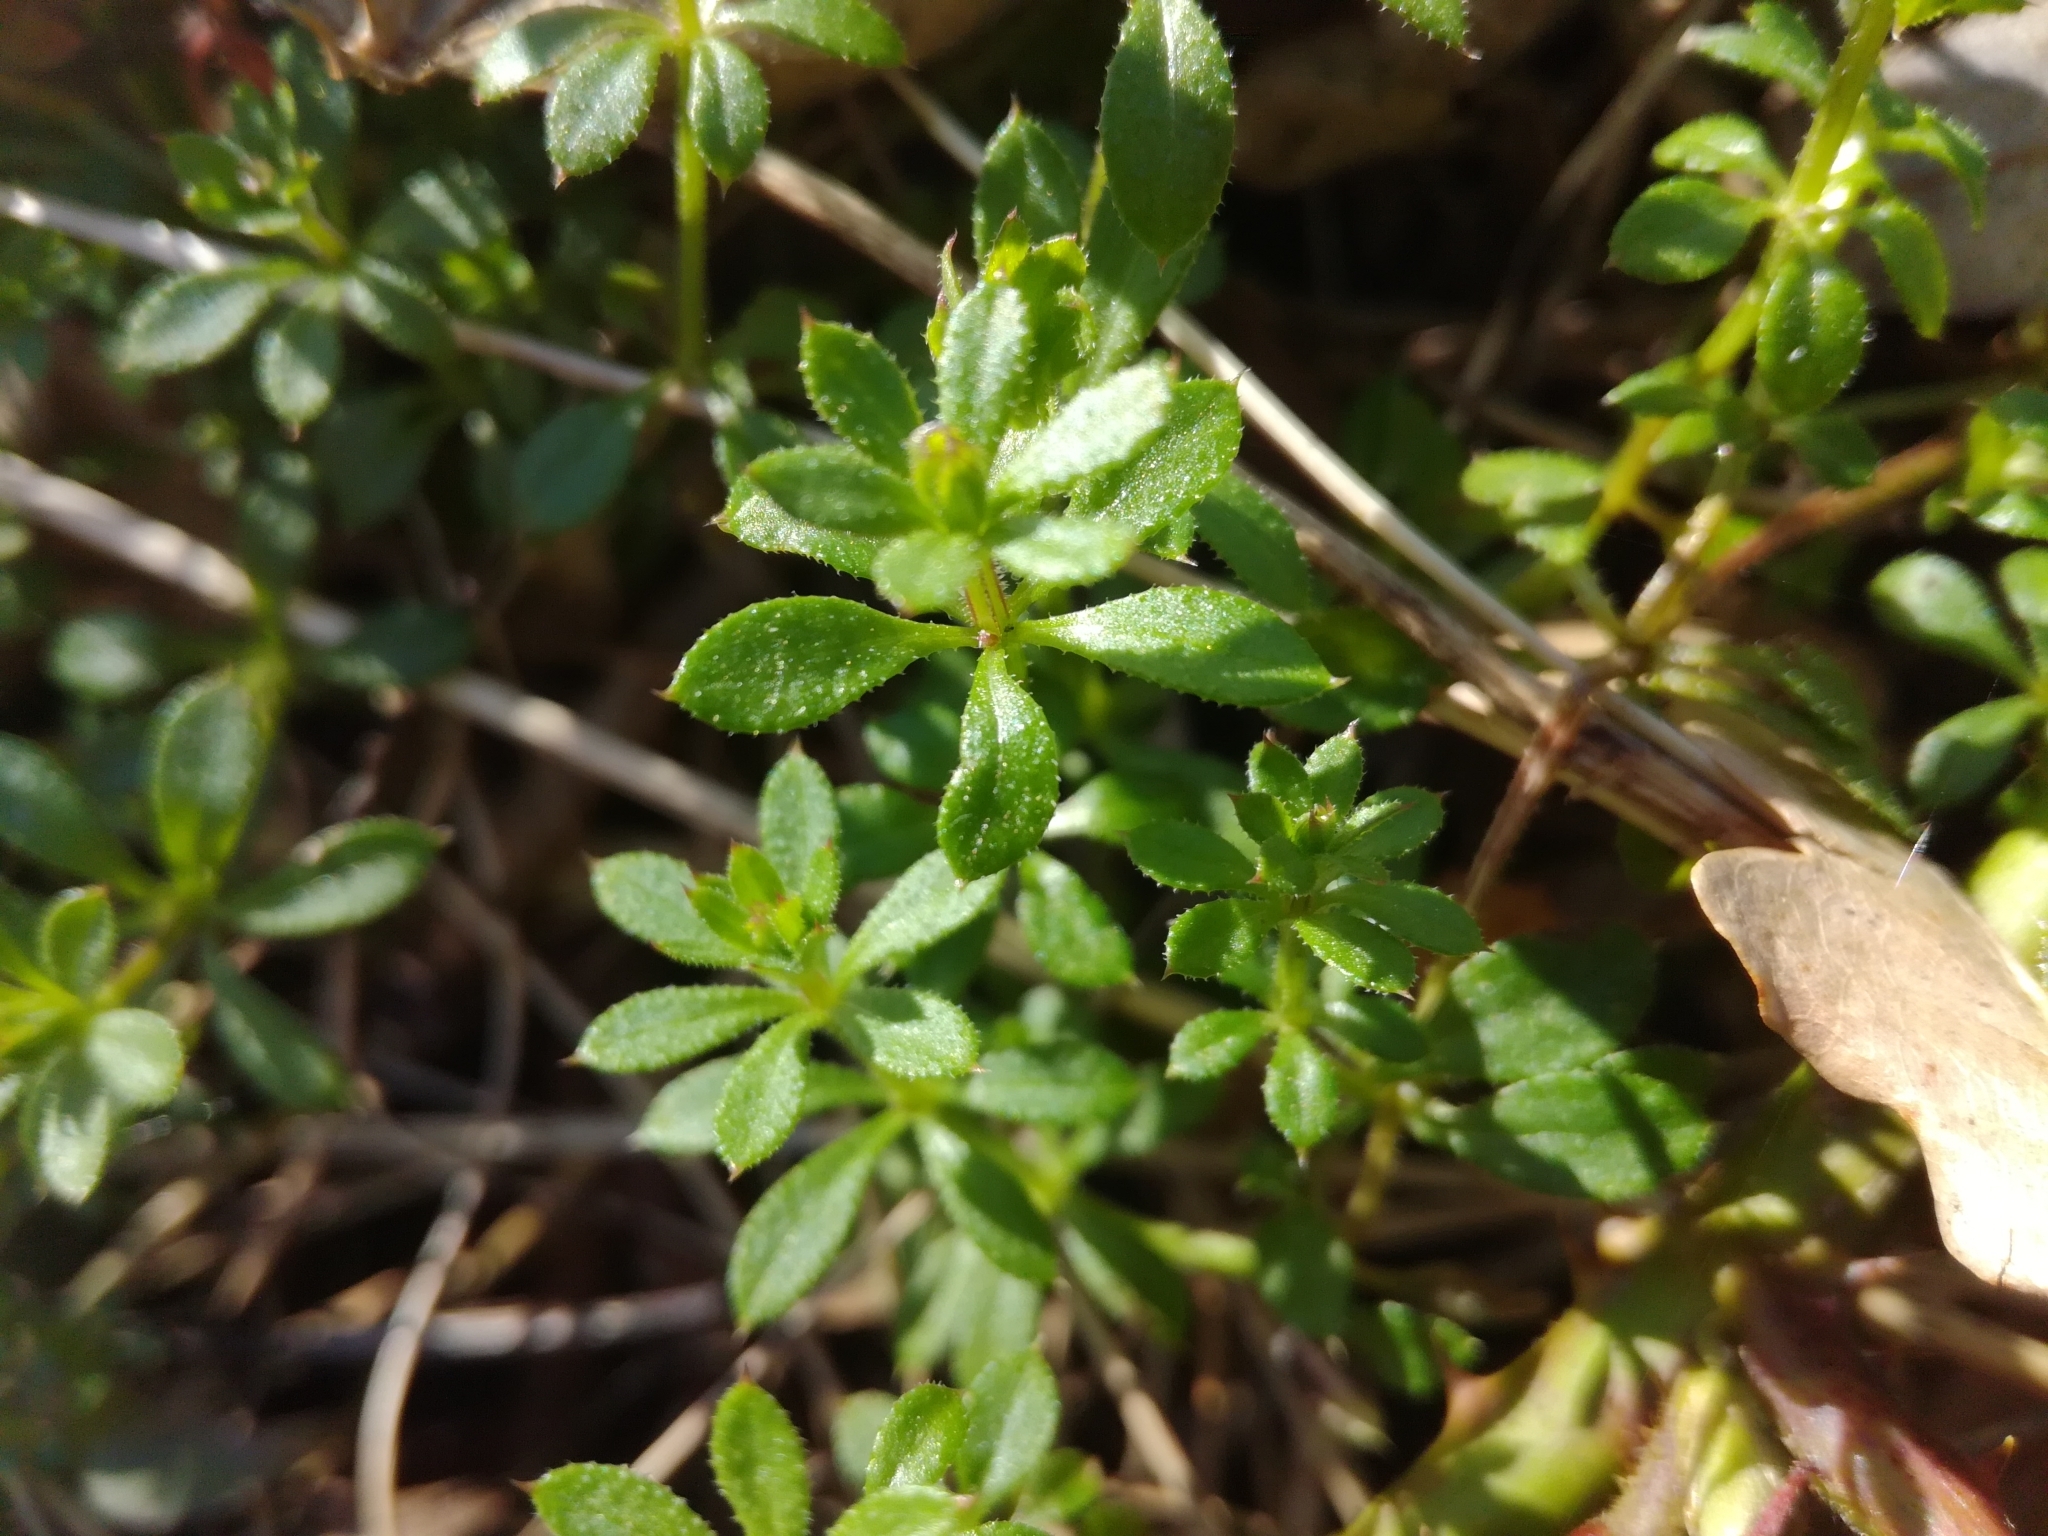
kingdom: Plantae
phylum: Tracheophyta
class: Magnoliopsida
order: Gentianales
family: Rubiaceae
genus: Galium
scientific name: Galium aparine
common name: Cleavers
